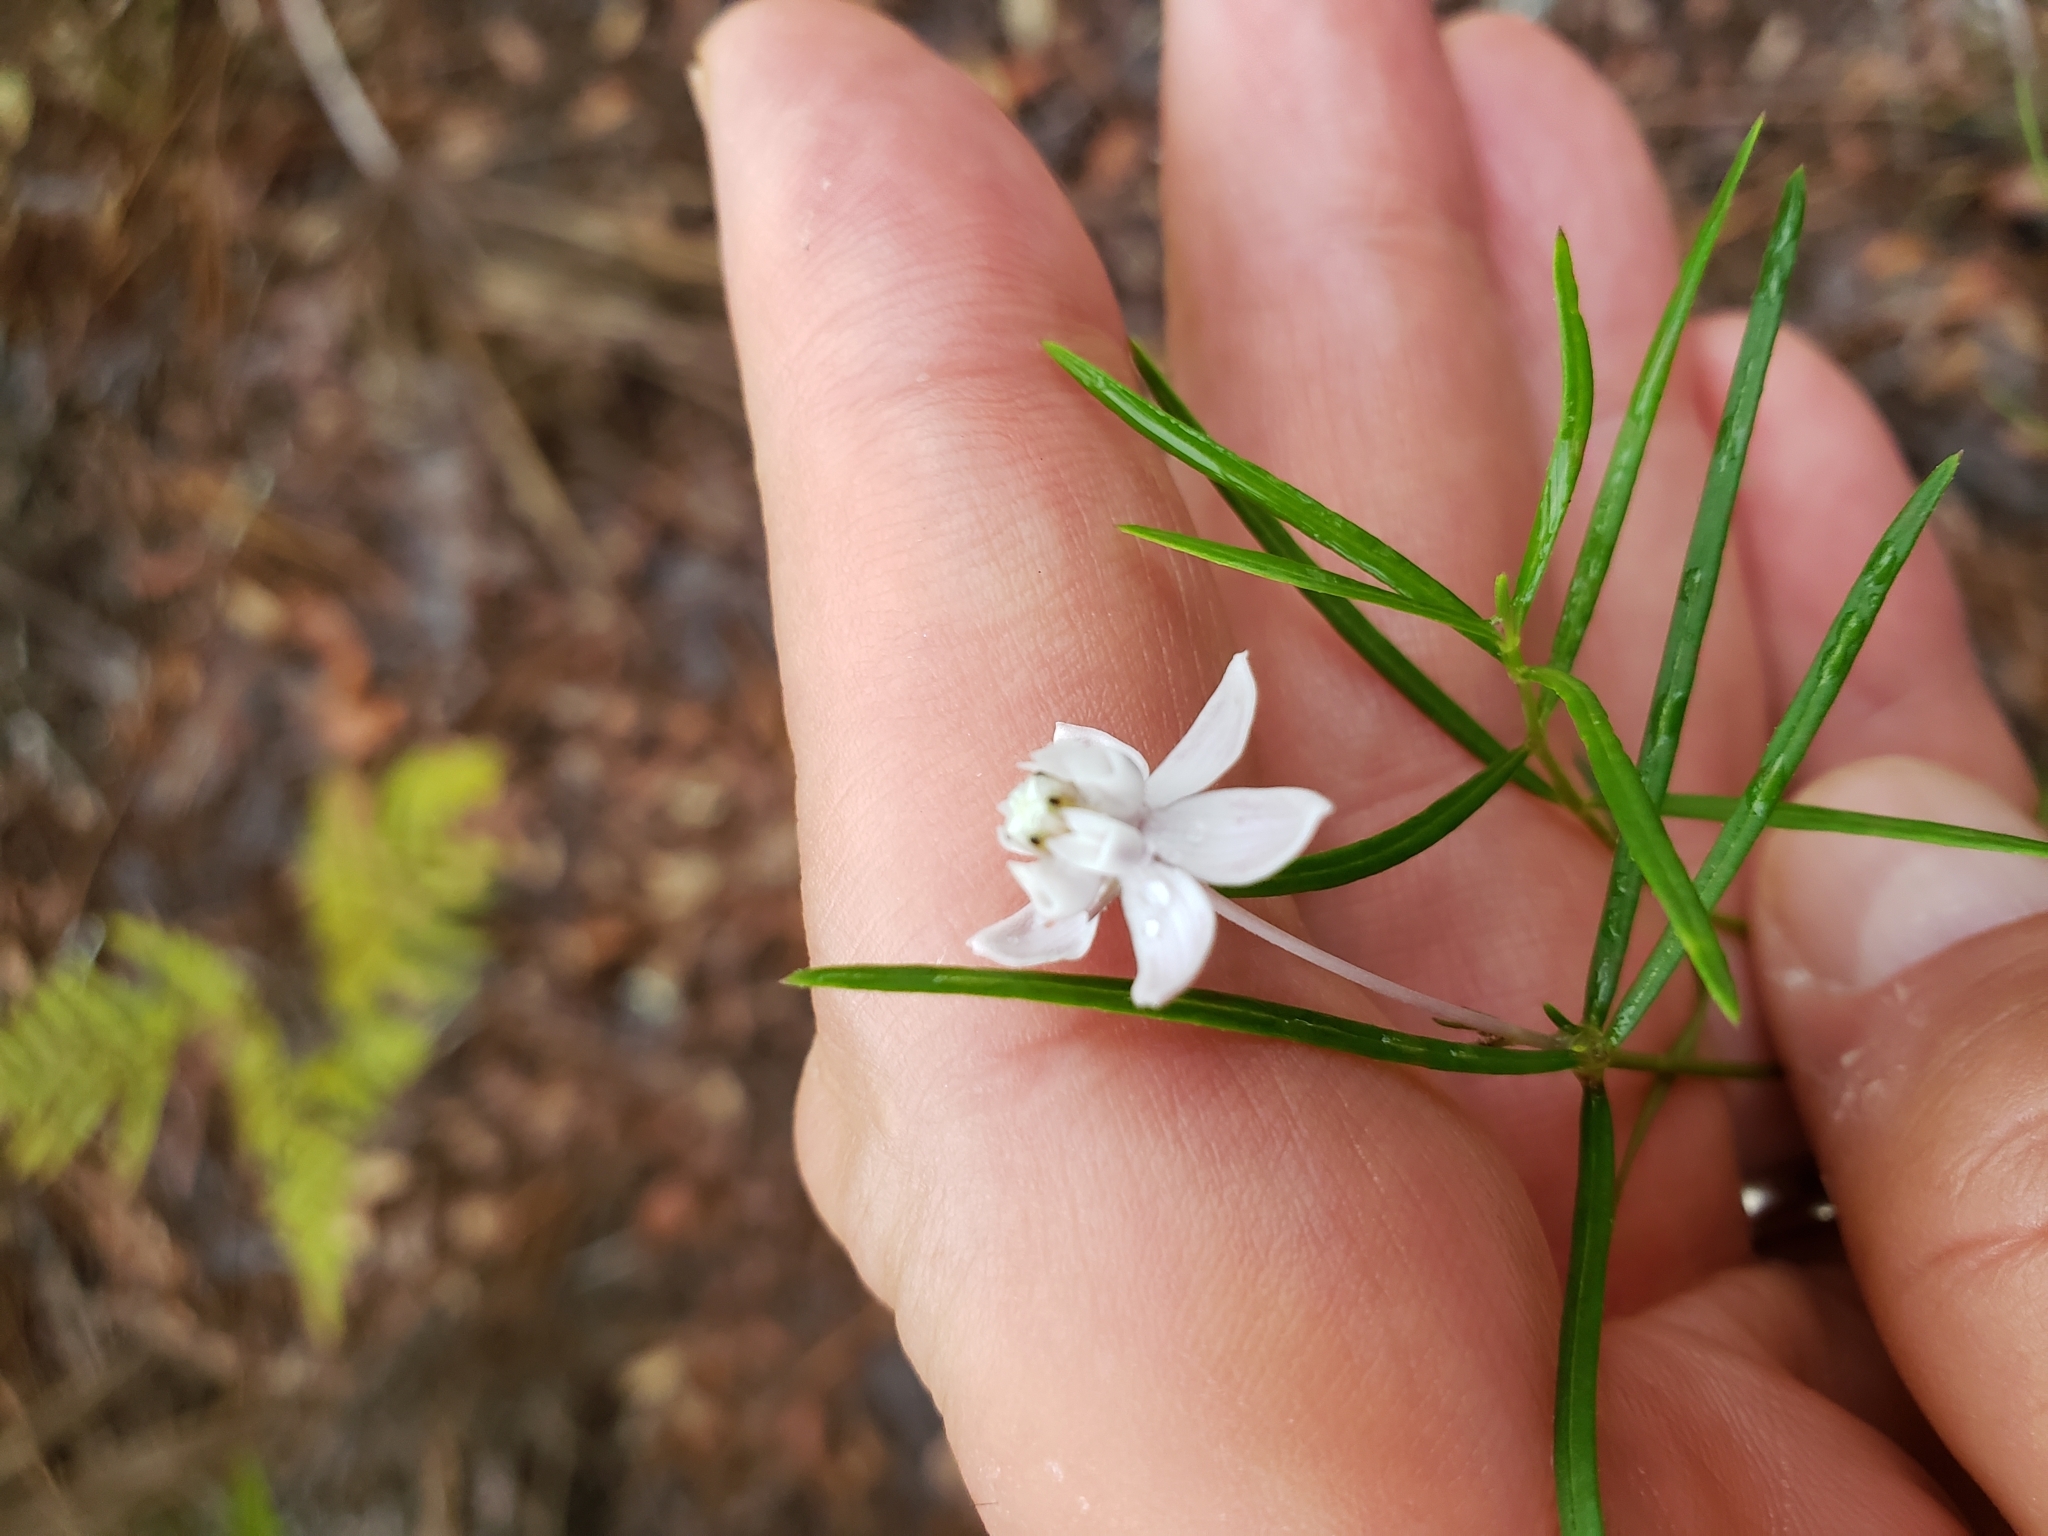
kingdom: Plantae
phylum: Tracheophyta
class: Magnoliopsida
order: Gentianales
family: Apocynaceae
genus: Asclepias
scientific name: Asclepias cinerea
